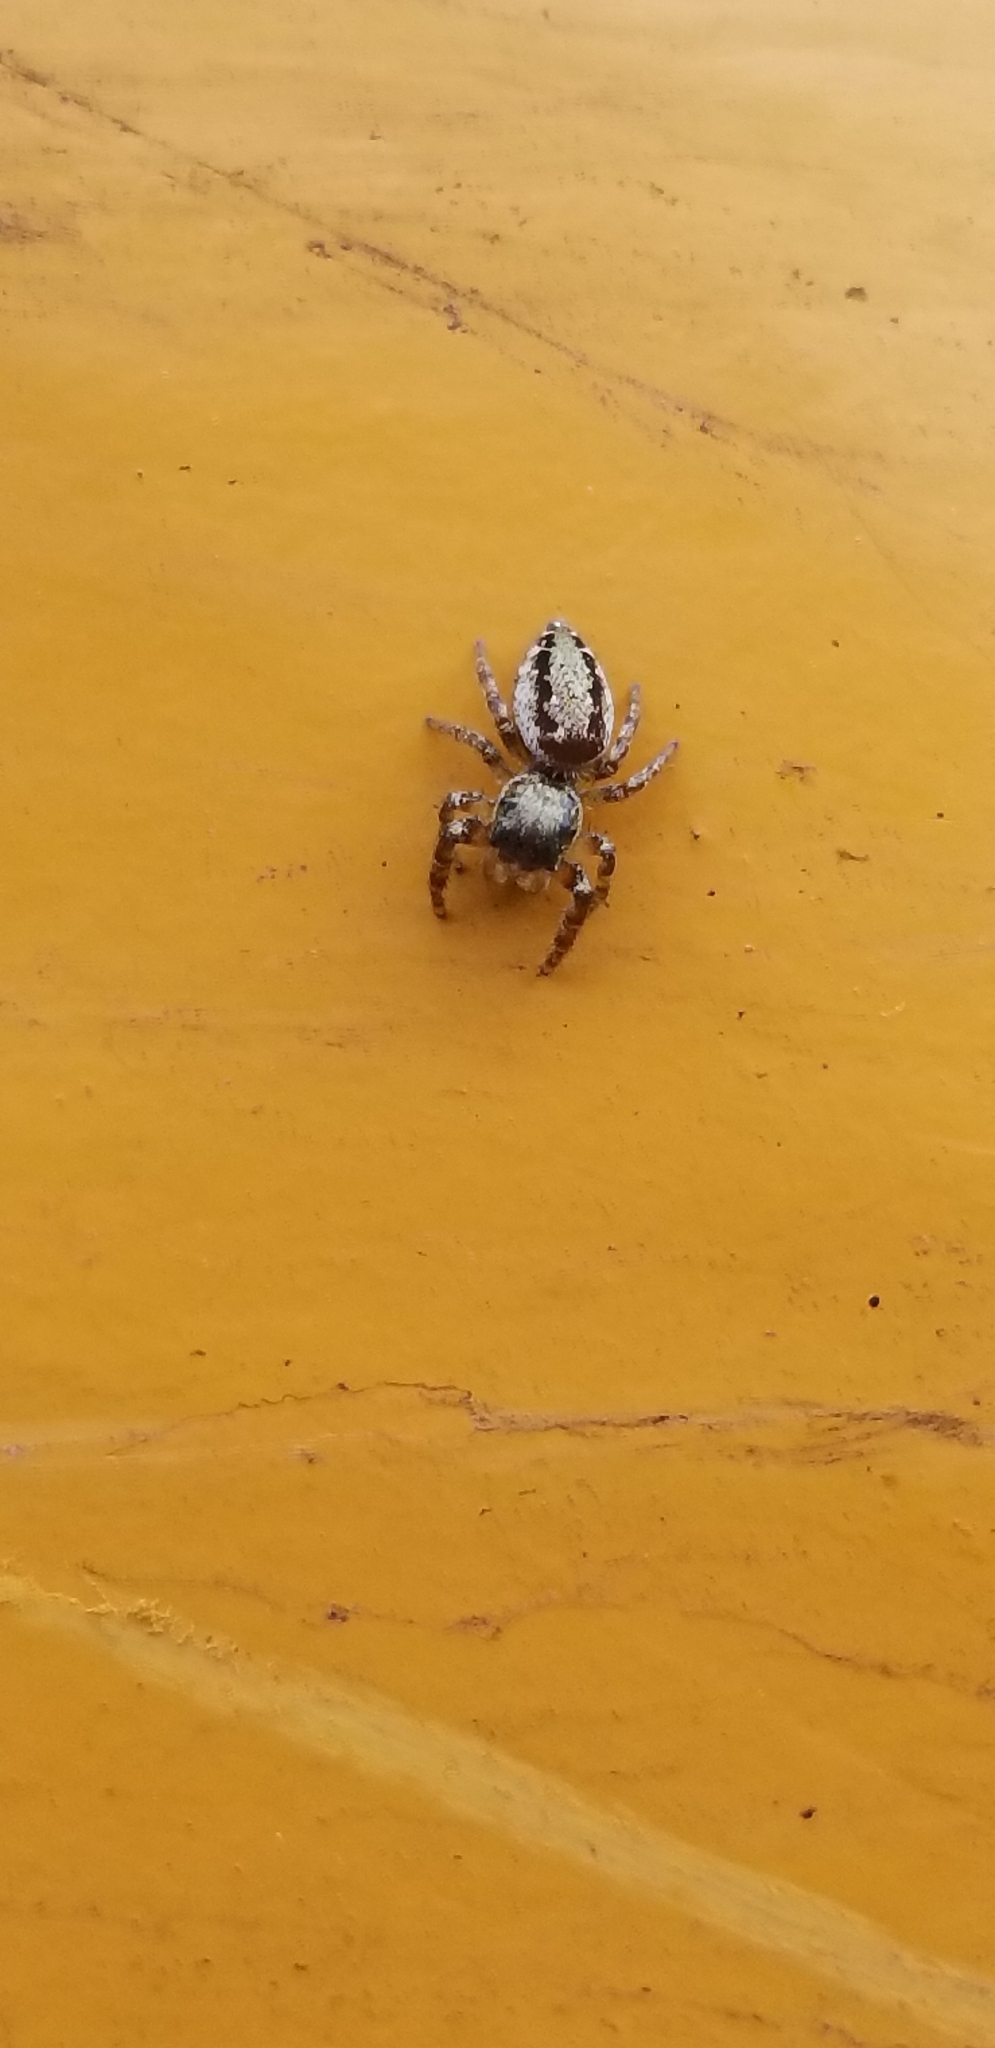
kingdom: Animalia
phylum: Arthropoda
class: Arachnida
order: Araneae
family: Salticidae
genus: Paraphidippus
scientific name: Paraphidippus aurantius
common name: Jumping spiders
